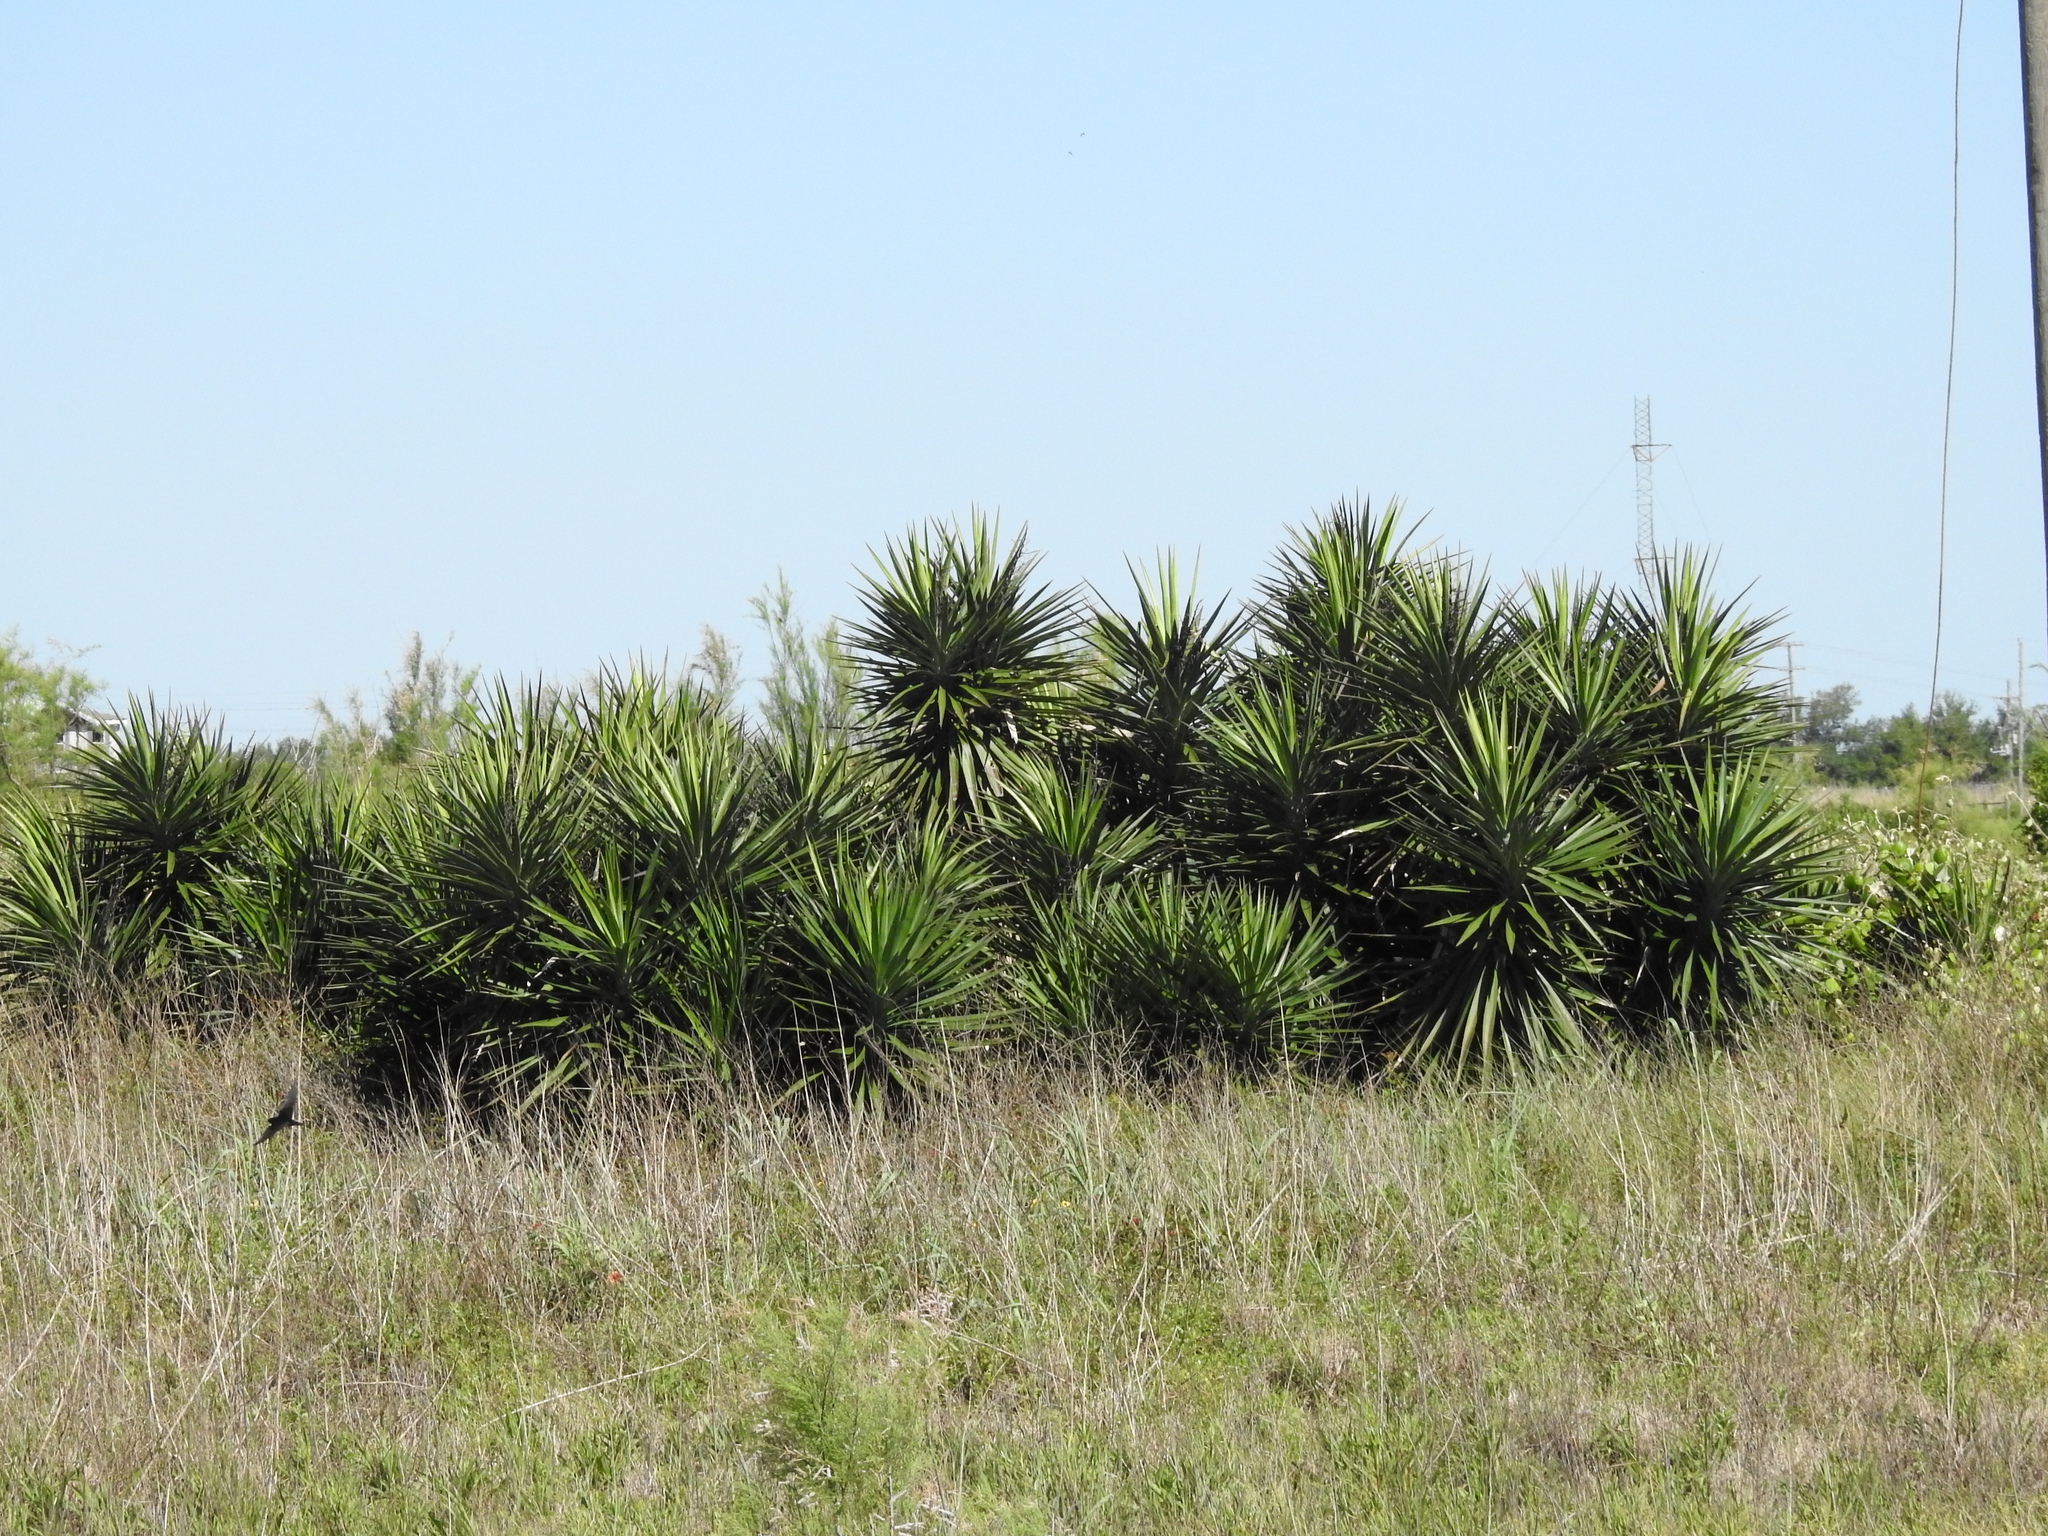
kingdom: Plantae
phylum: Tracheophyta
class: Liliopsida
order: Asparagales
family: Asparagaceae
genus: Yucca
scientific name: Yucca aloifolia
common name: Aloe yucca
